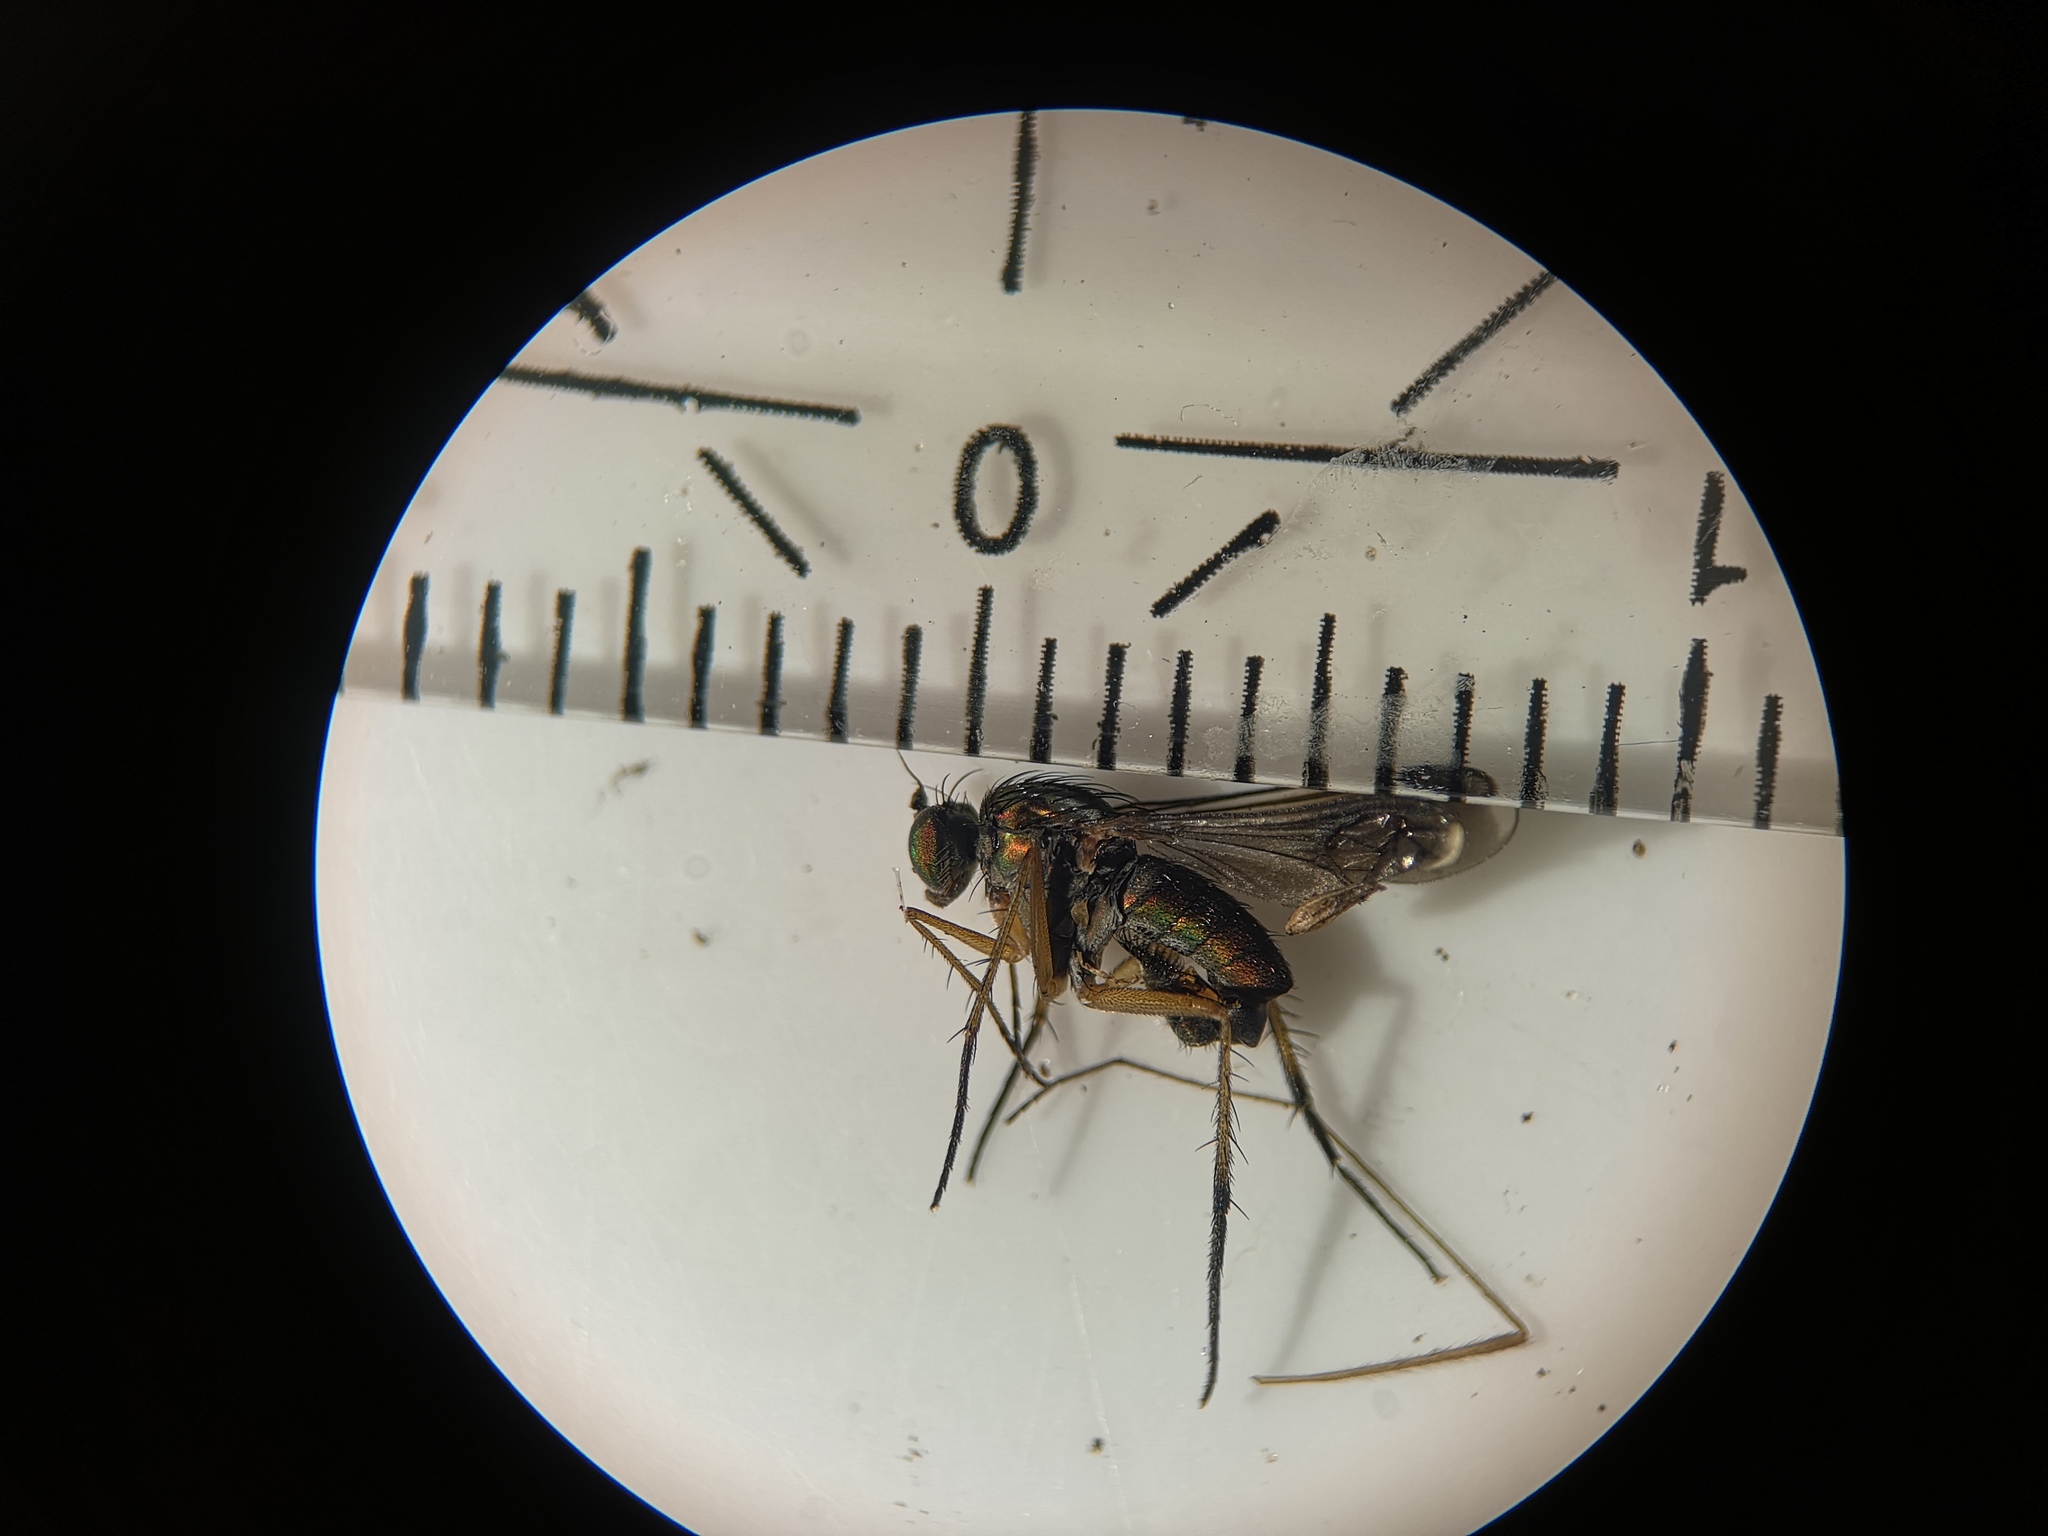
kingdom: Animalia
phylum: Arthropoda
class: Insecta
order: Diptera
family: Dolichopodidae
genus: Poecilobothrus
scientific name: Poecilobothrus nobilitatus
